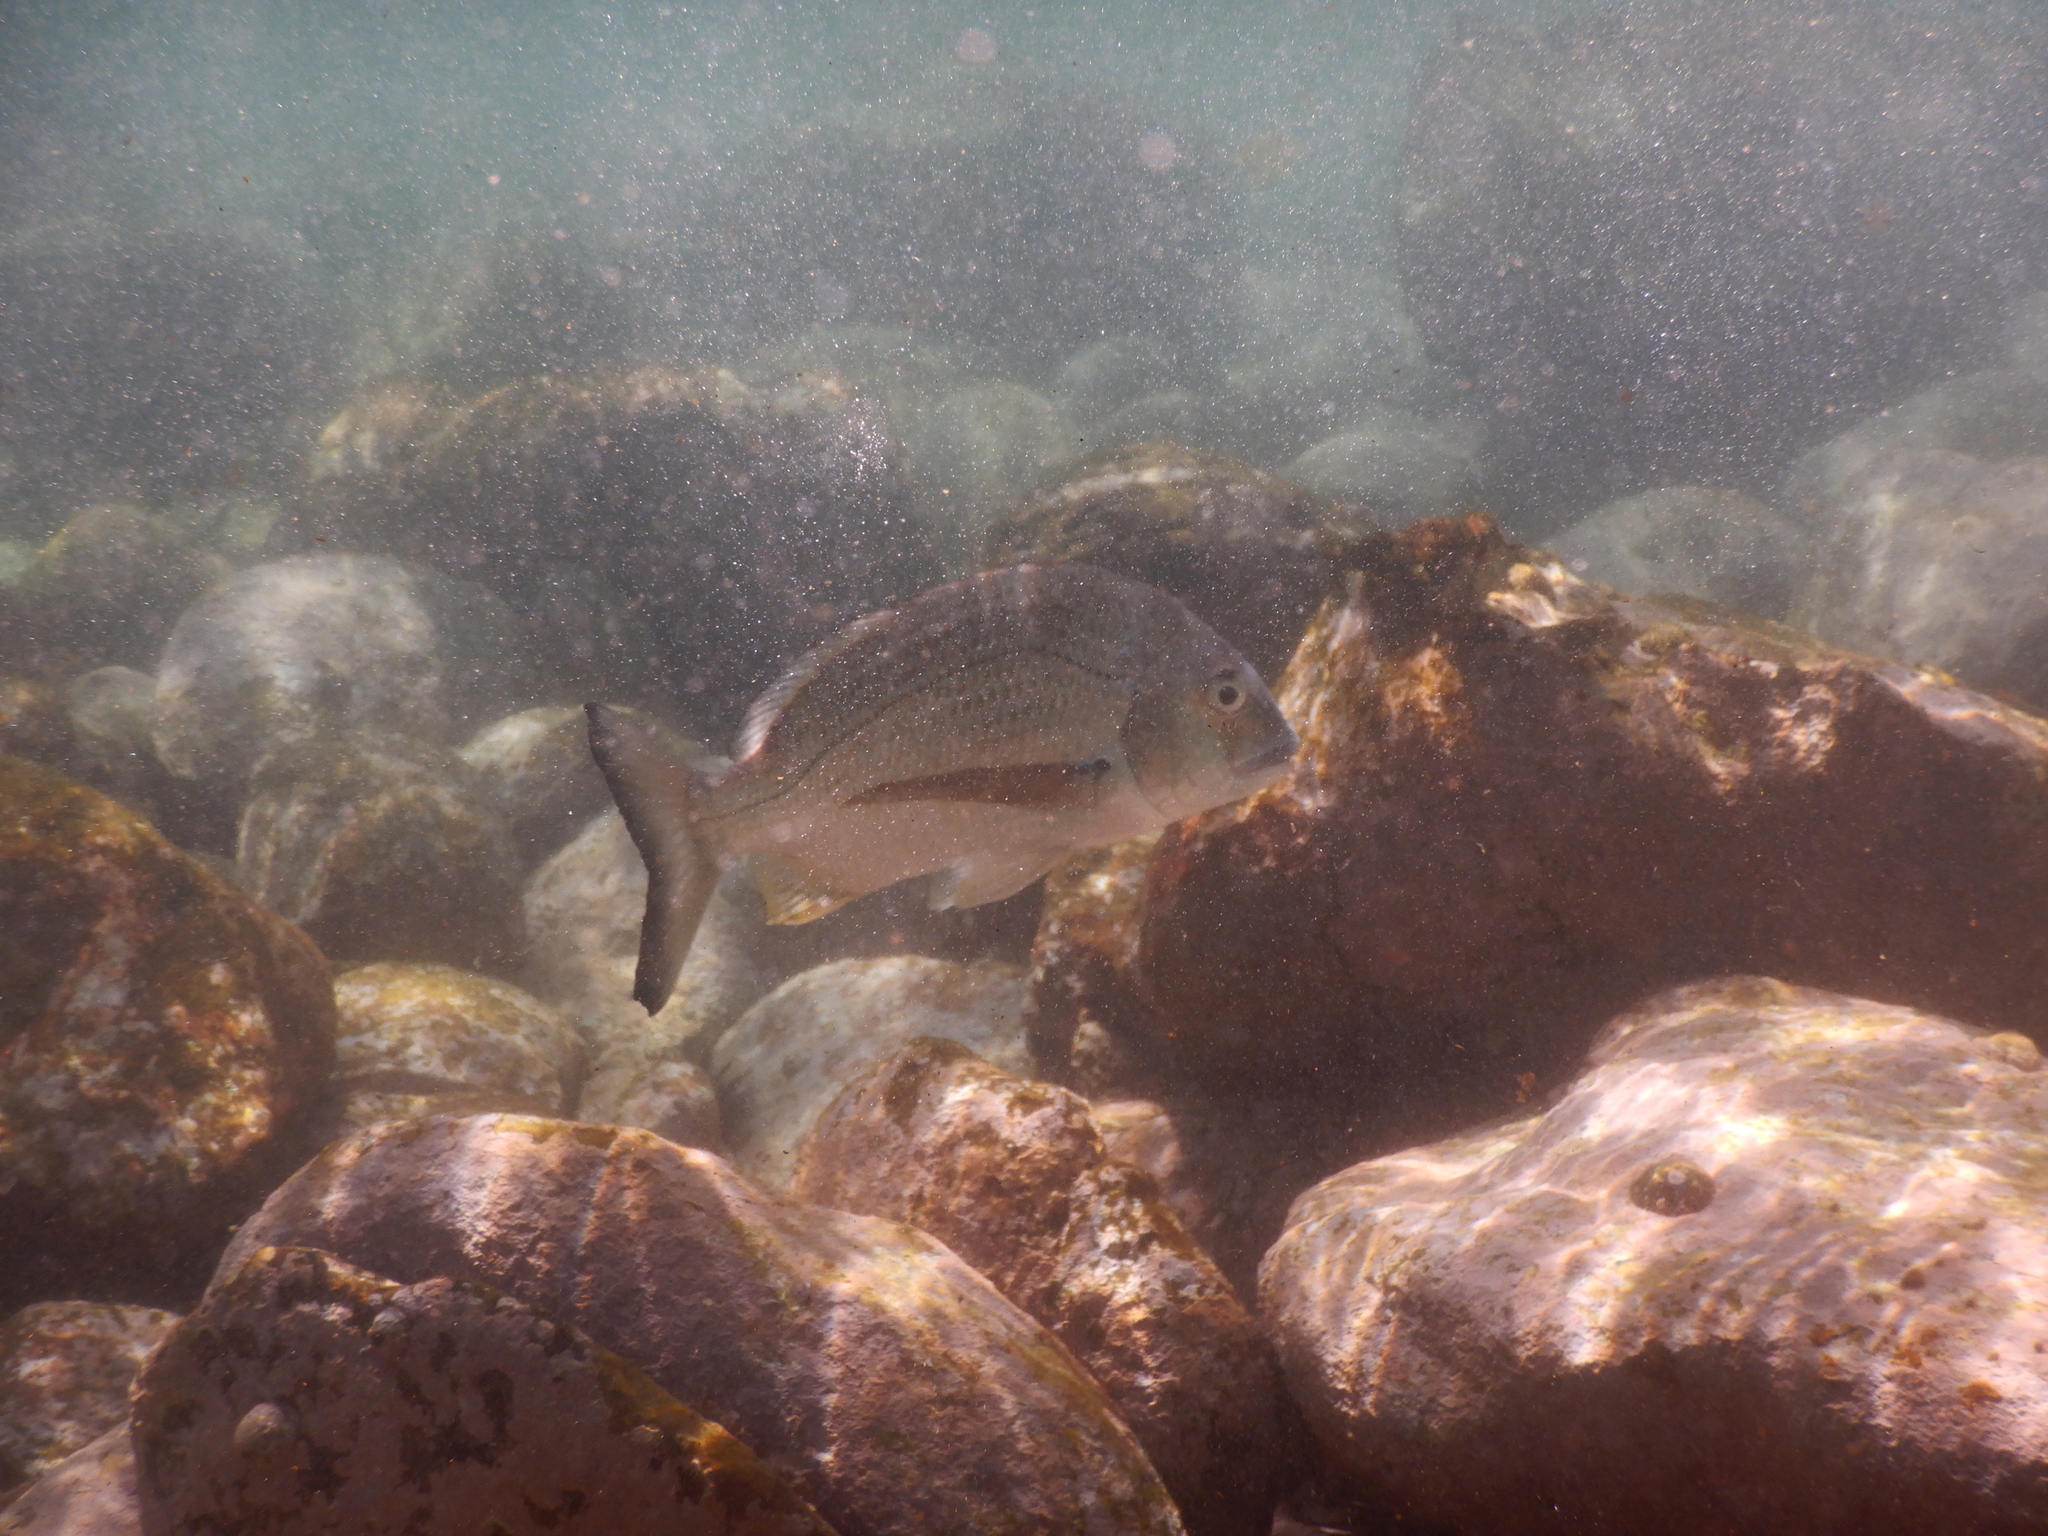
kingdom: Animalia
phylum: Chordata
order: Perciformes
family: Sparidae
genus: Acanthopagrus
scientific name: Acanthopagrus australis
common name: Surf bream
